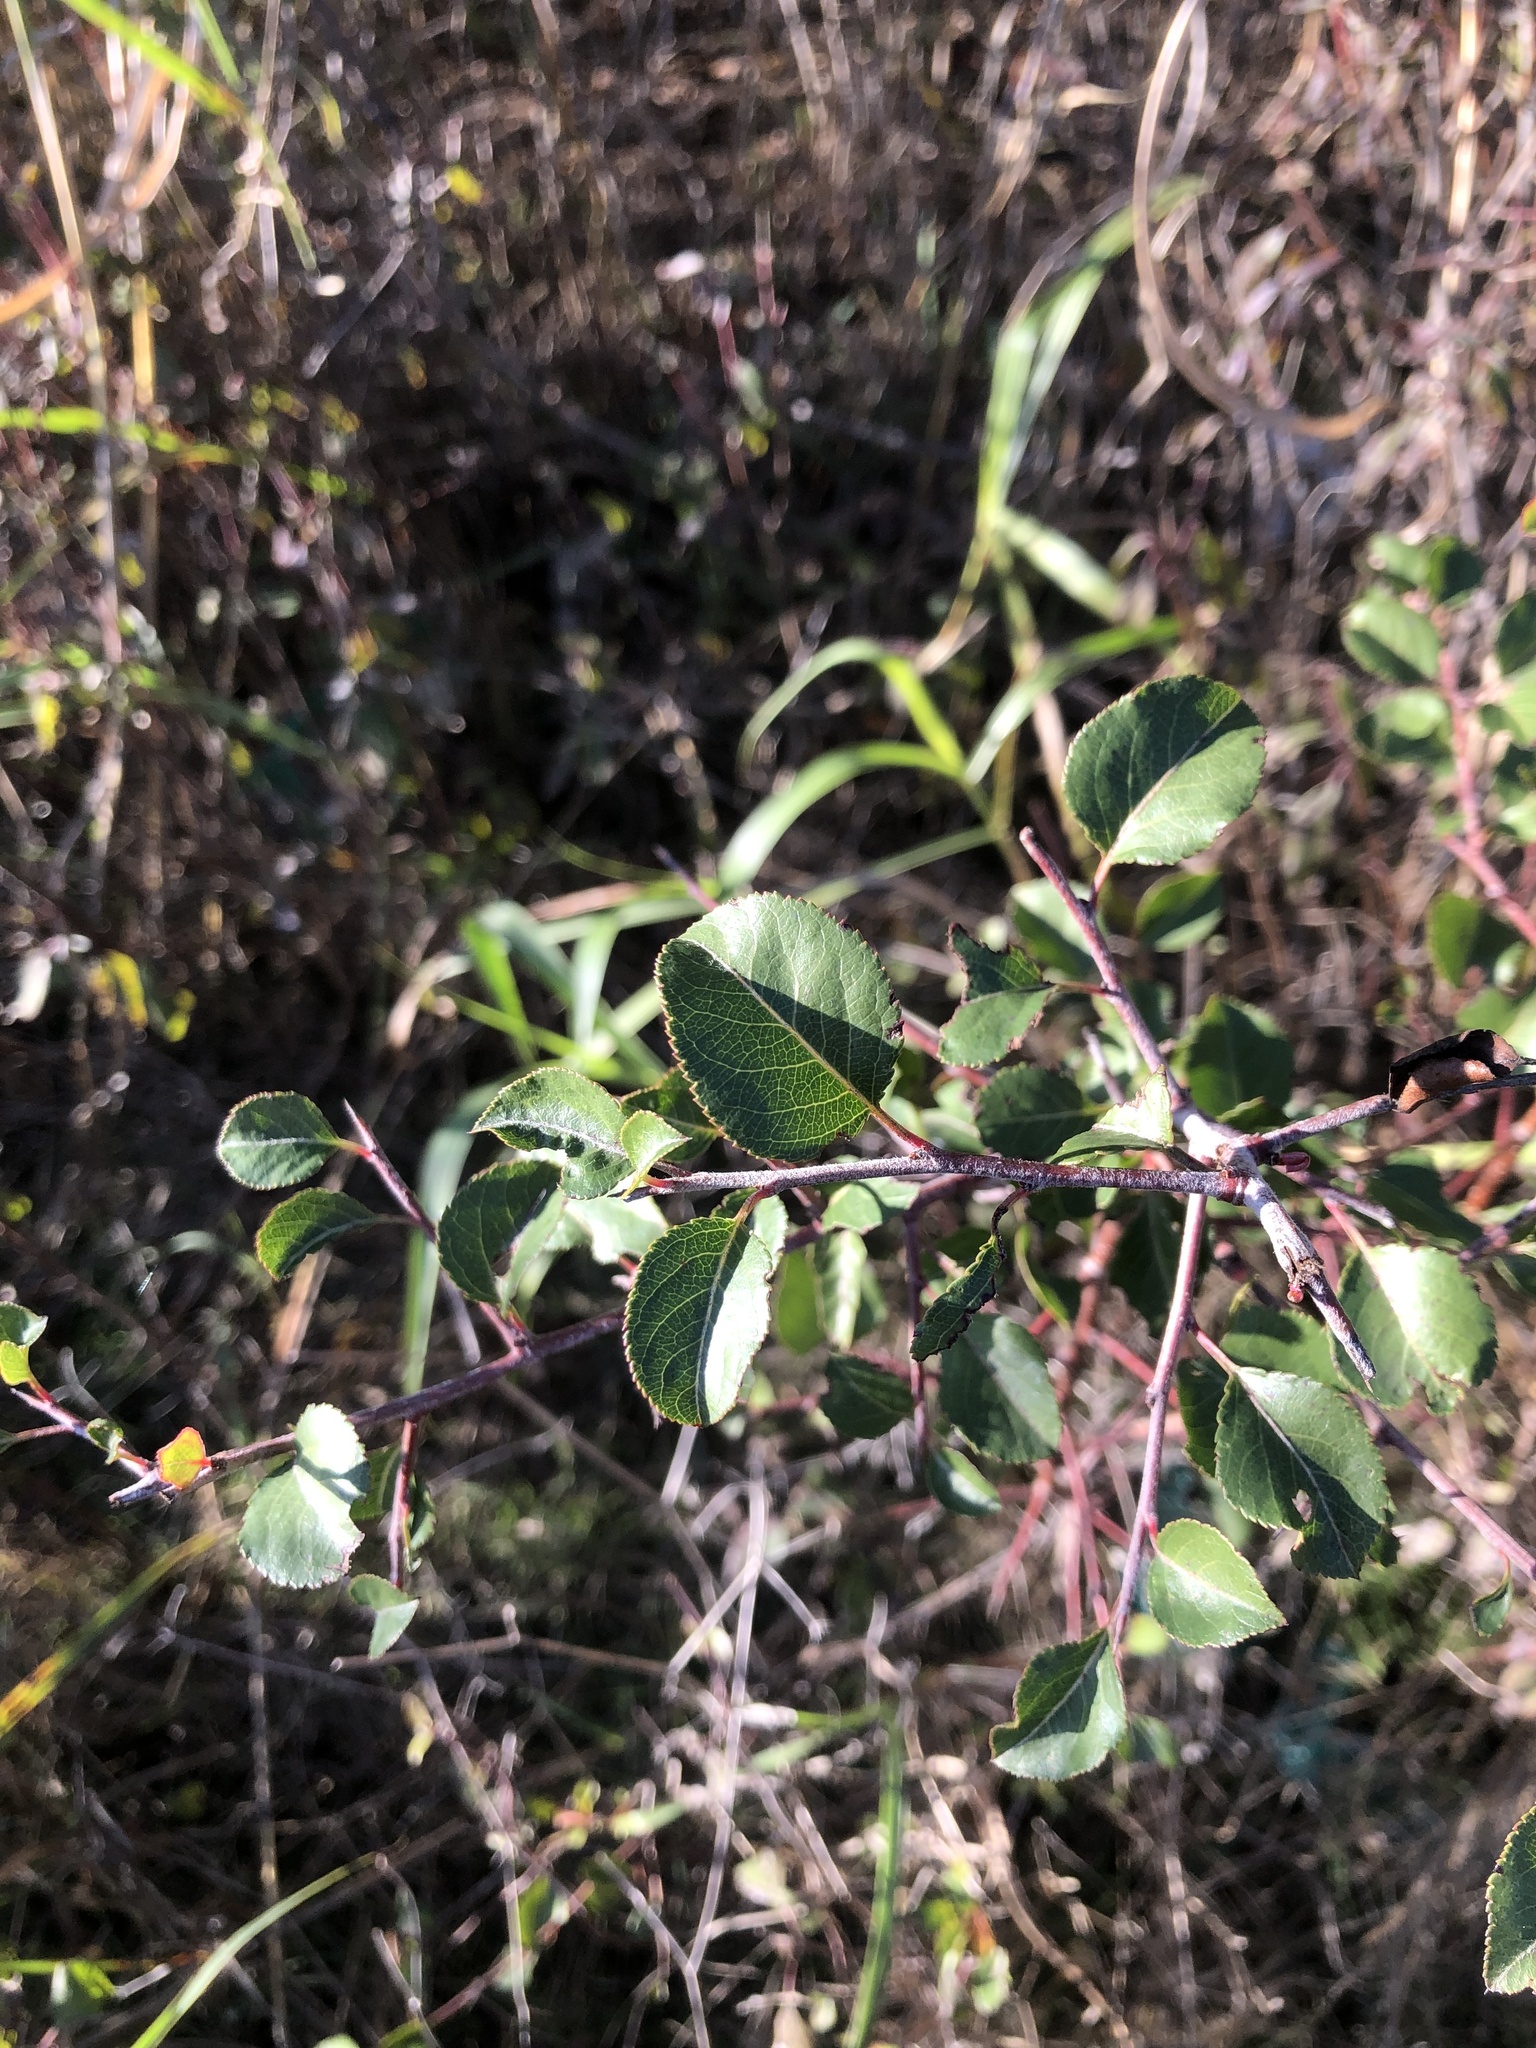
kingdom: Plantae
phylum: Tracheophyta
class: Magnoliopsida
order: Rosales
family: Rosaceae
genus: Pyrus
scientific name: Pyrus calleryana
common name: Callery pear
